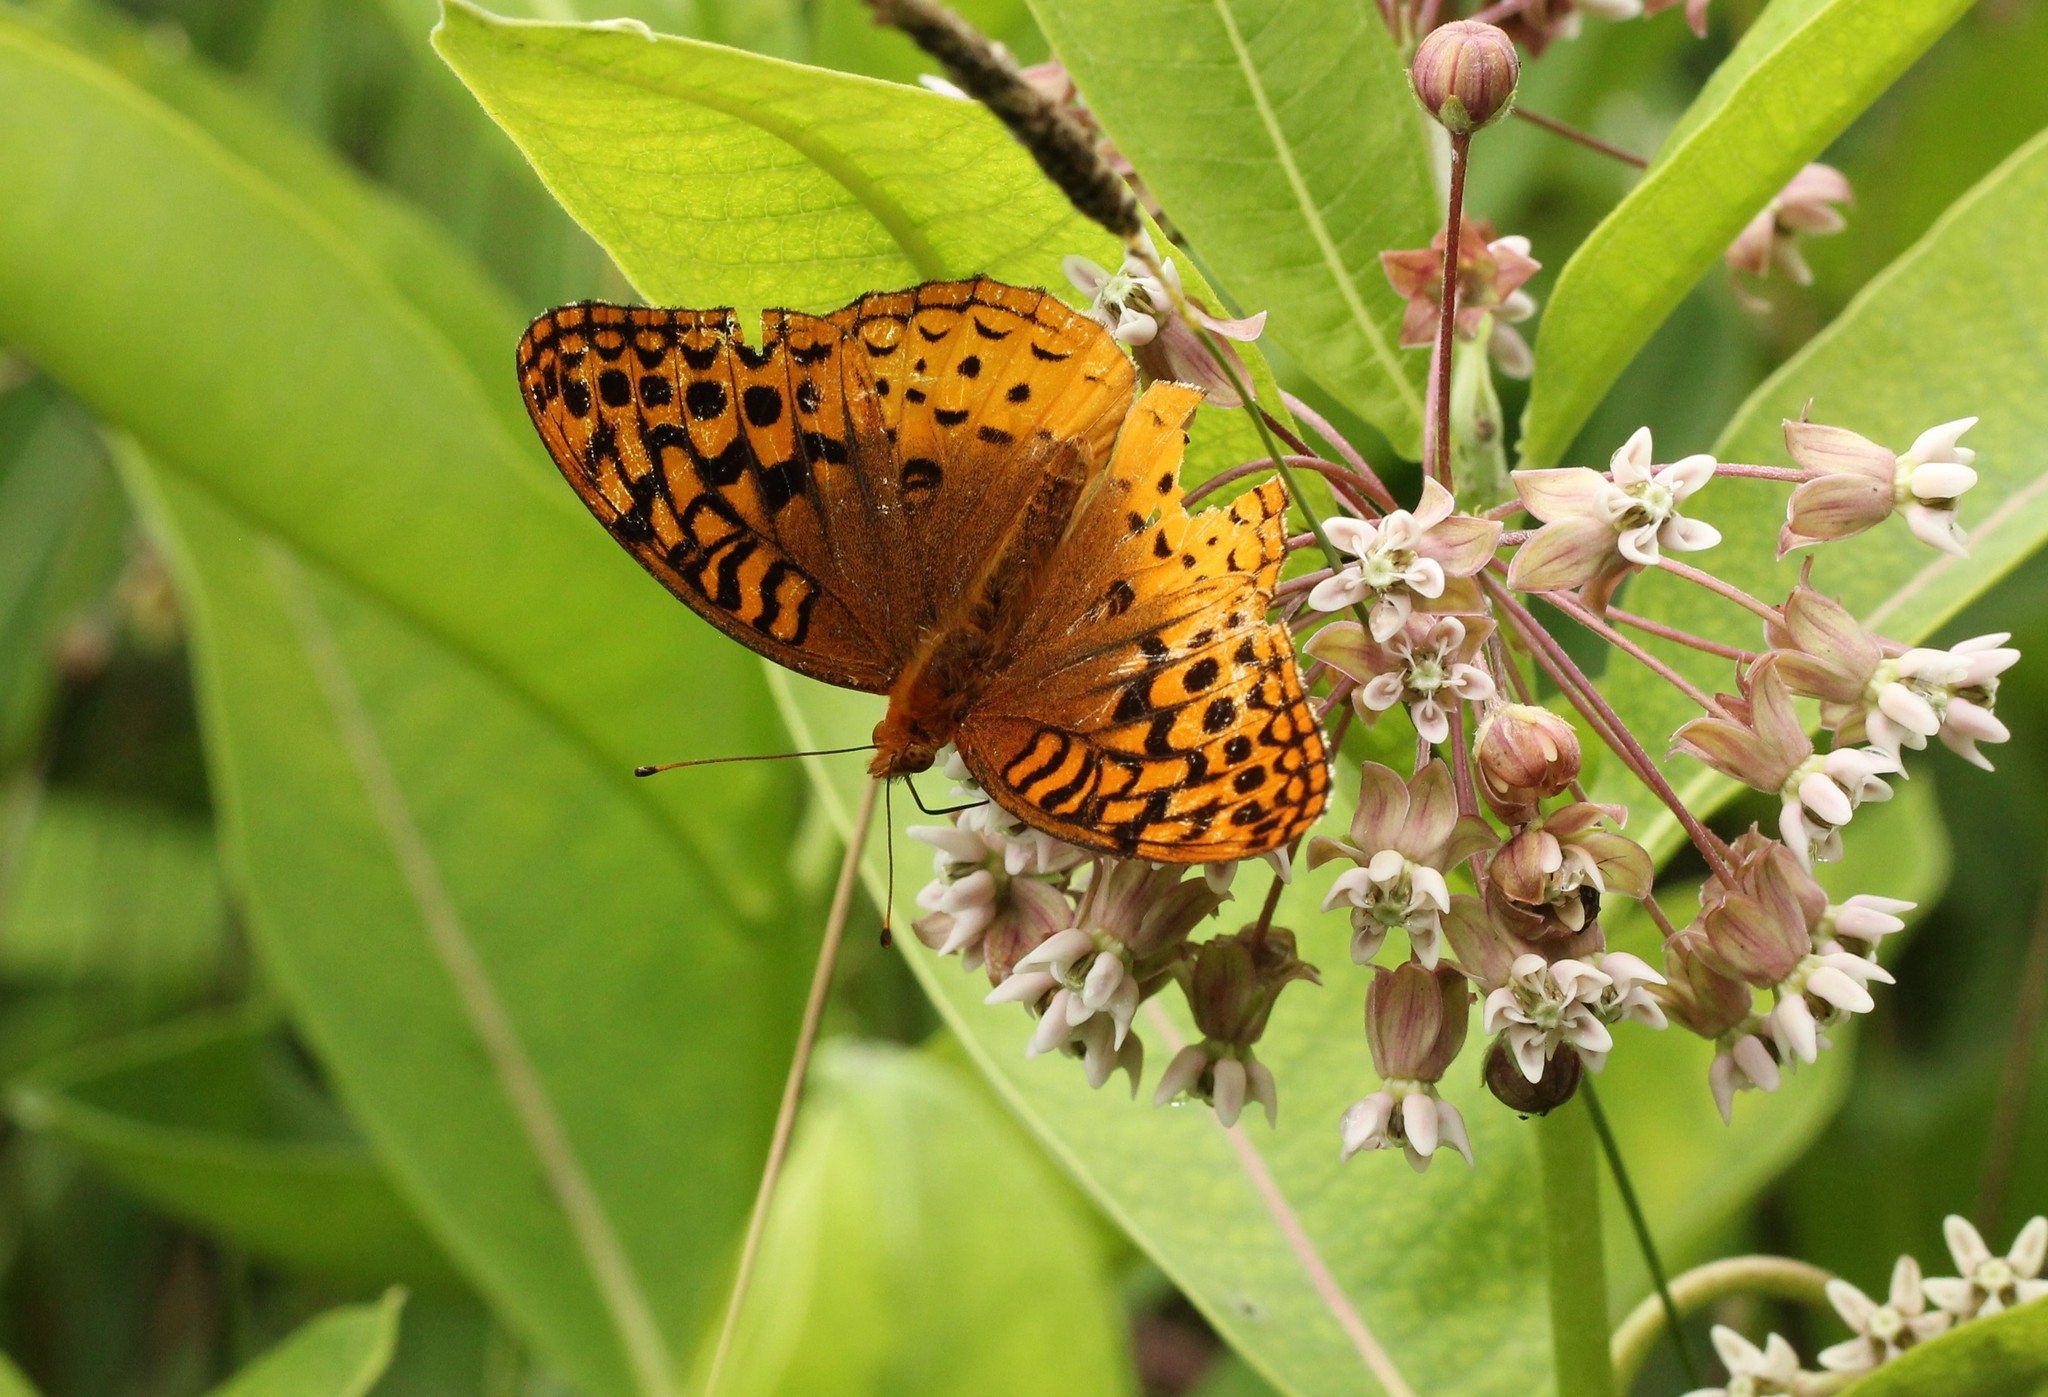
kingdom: Animalia
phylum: Arthropoda
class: Insecta
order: Lepidoptera
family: Nymphalidae
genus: Speyeria
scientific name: Speyeria cybele
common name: Great spangled fritillary
